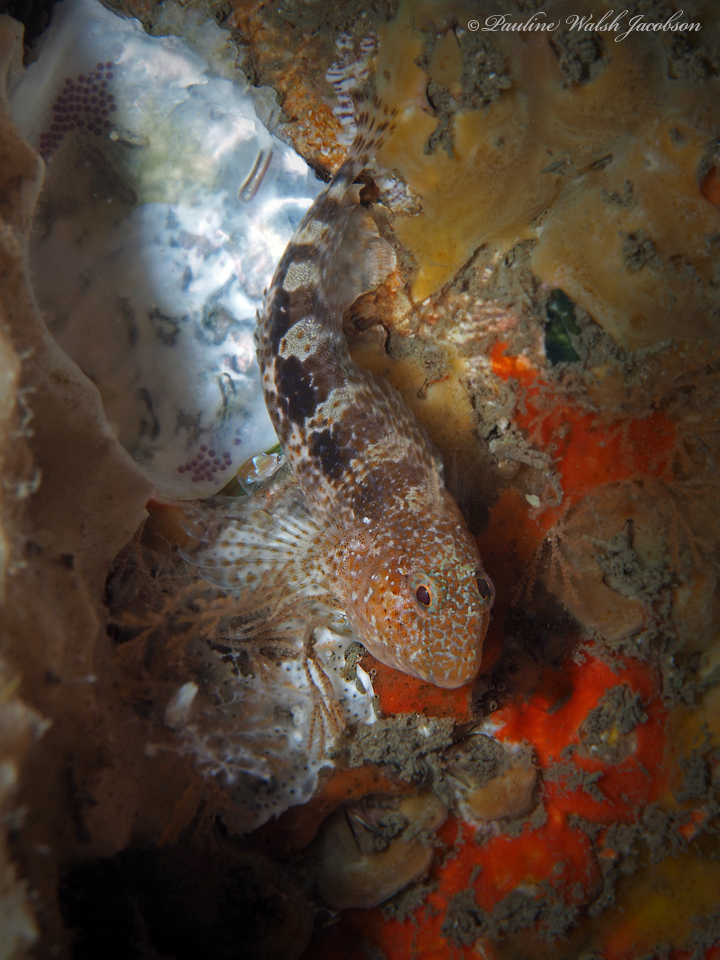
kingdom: Animalia
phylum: Chordata
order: Perciformes
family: Blenniidae
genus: Hypleurochilus
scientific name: Hypleurochilus bermudensis
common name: Barred blenny
